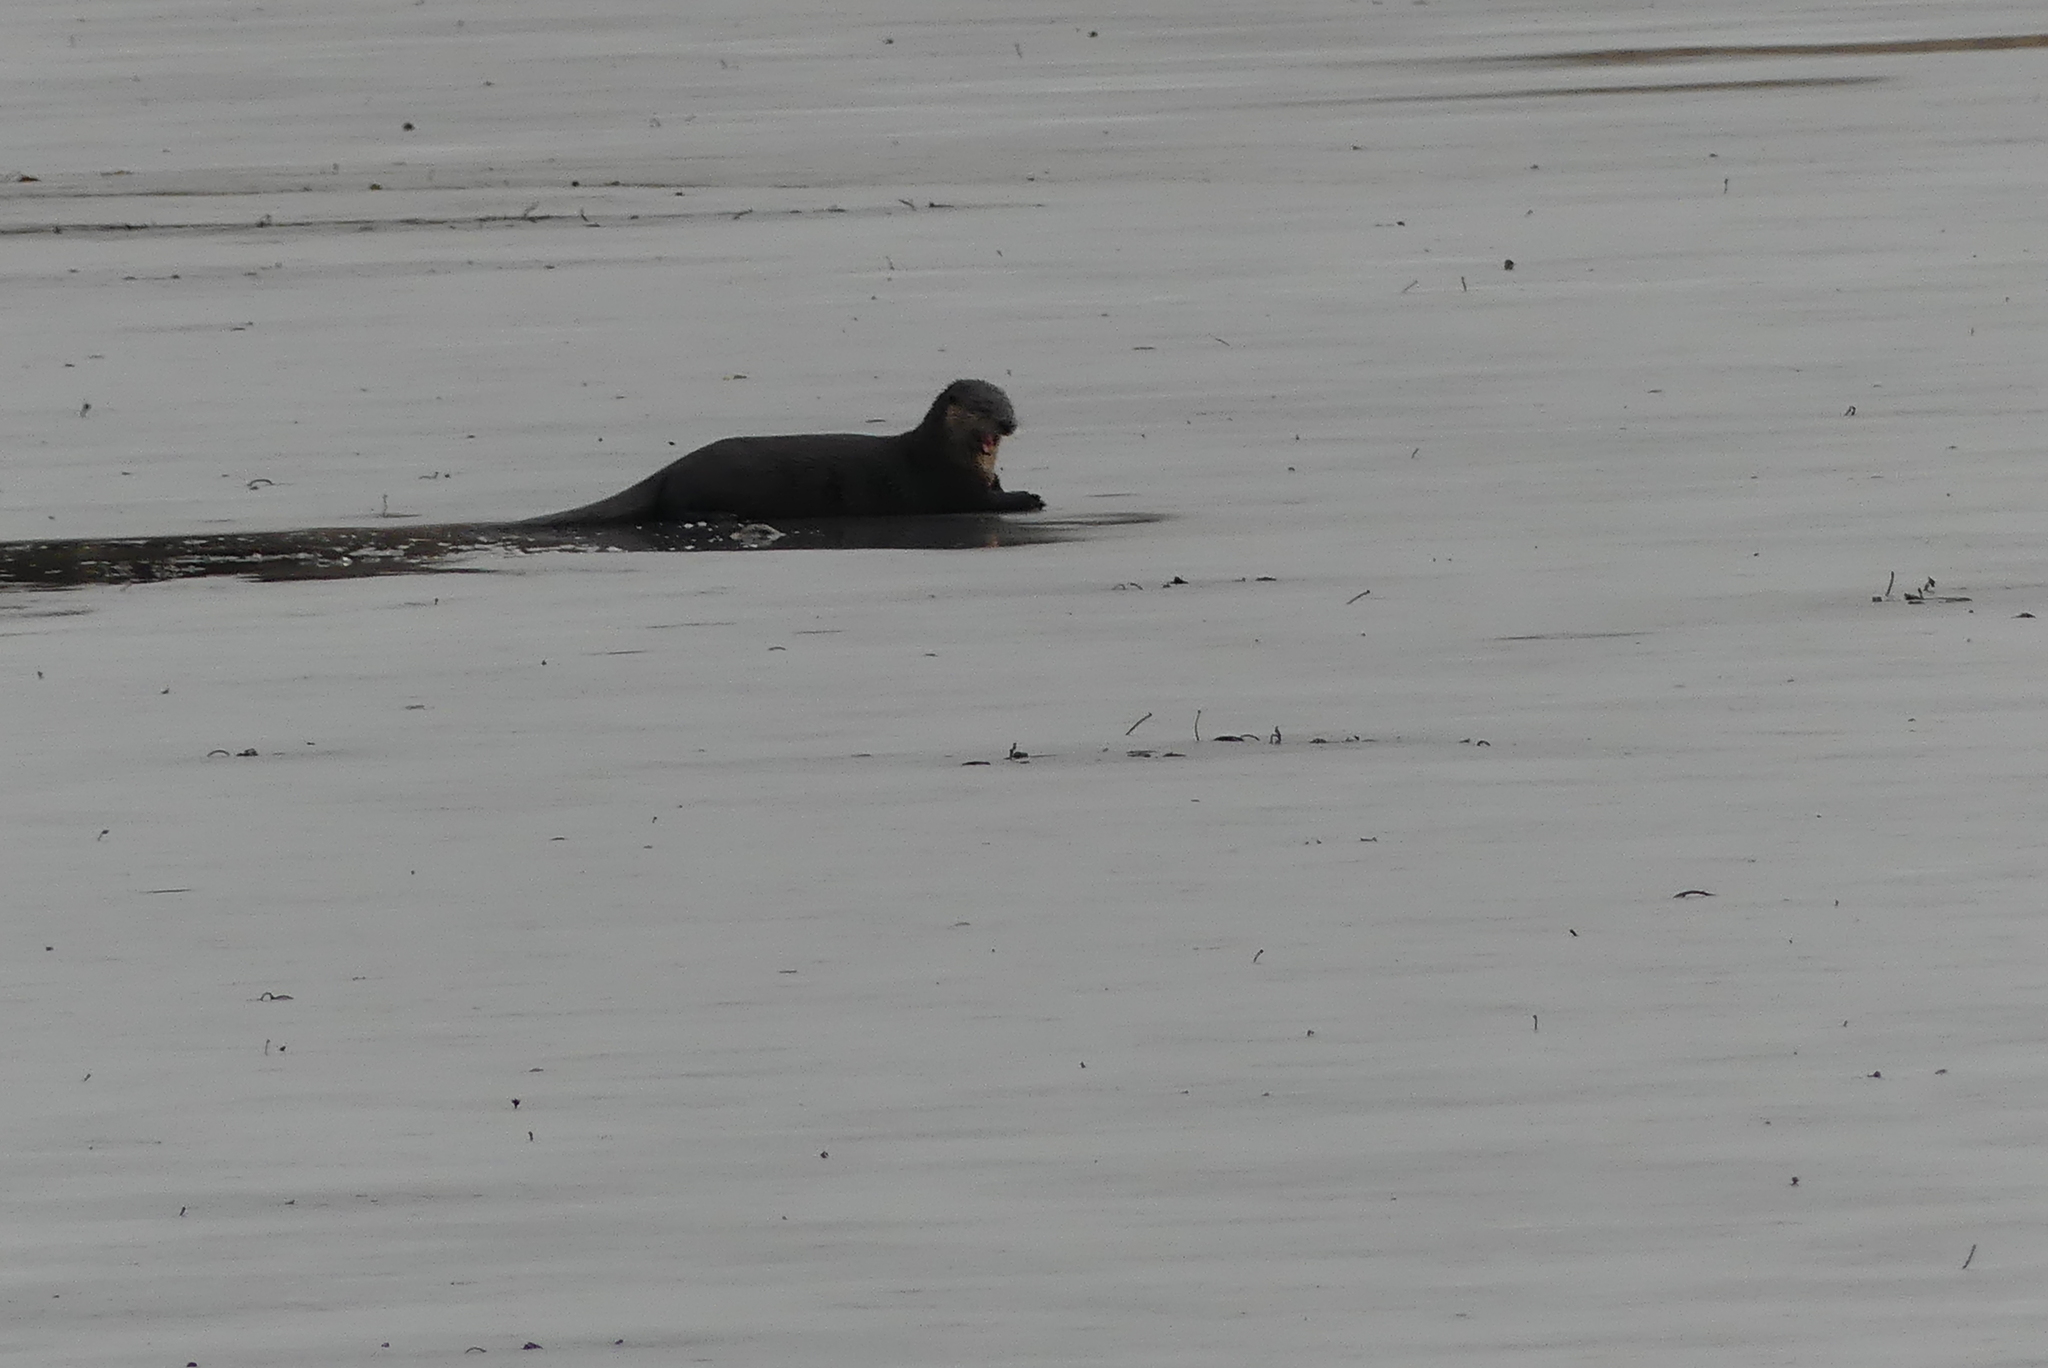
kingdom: Animalia
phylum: Chordata
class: Mammalia
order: Carnivora
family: Mustelidae
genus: Lontra
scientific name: Lontra canadensis
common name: North american river otter
